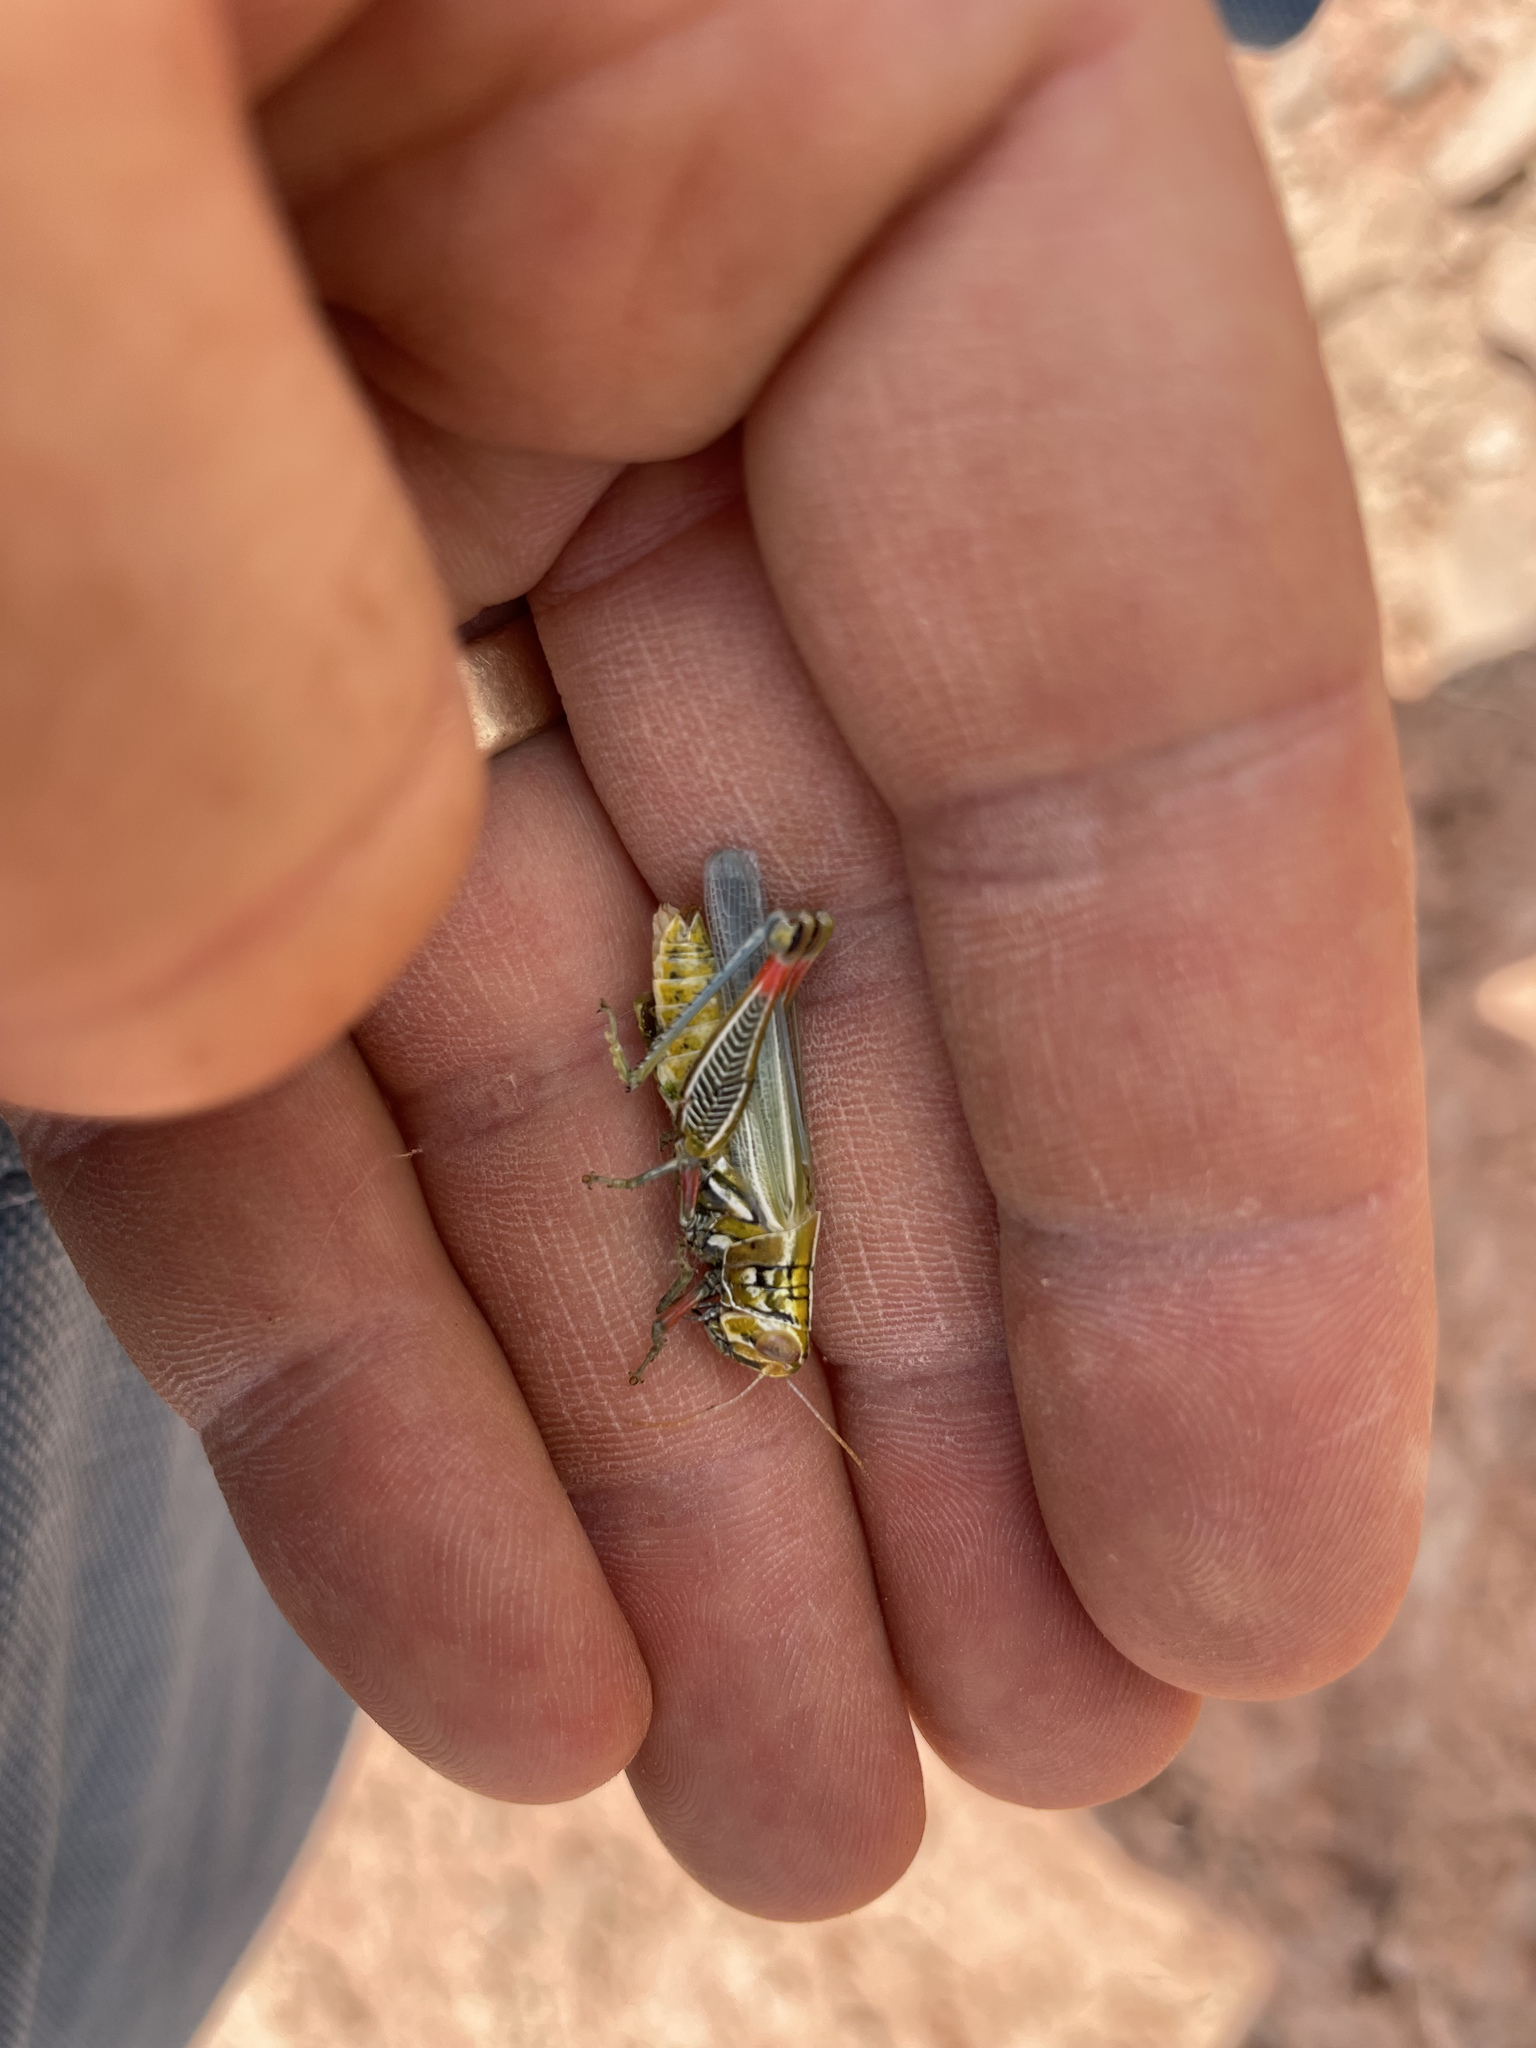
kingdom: Animalia
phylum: Arthropoda
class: Insecta
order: Orthoptera
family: Acrididae
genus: Hesperotettix
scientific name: Hesperotettix viridis
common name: Meadow purple-striped grasshopper
